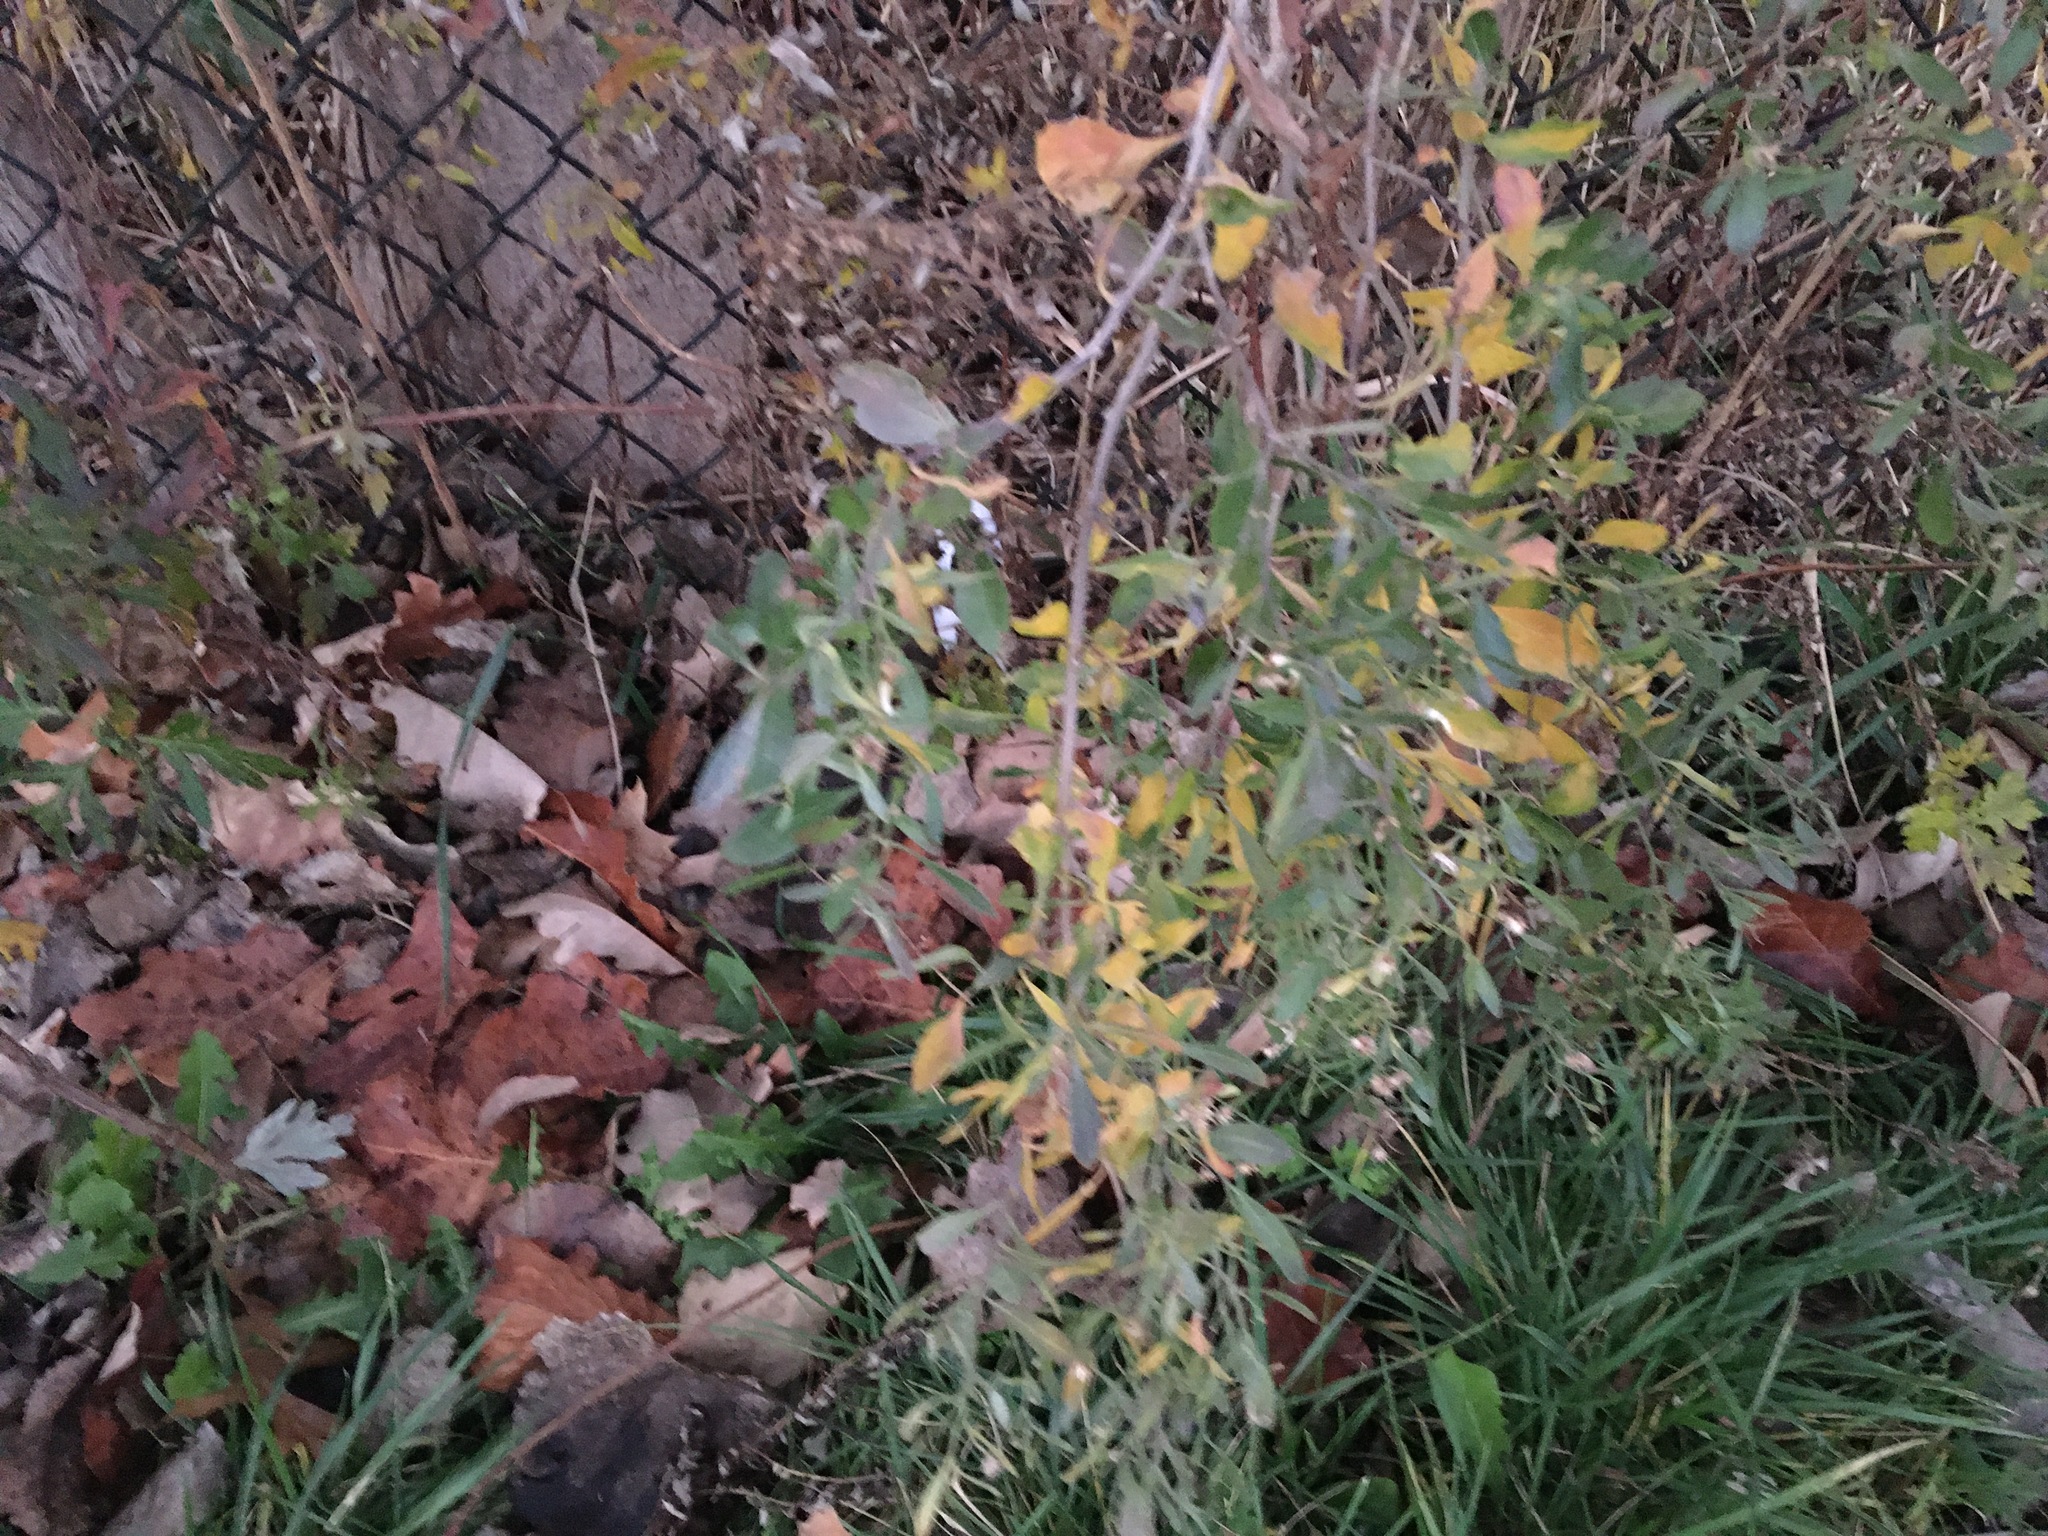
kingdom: Plantae
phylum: Tracheophyta
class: Magnoliopsida
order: Asterales
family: Asteraceae
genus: Baccharis
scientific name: Baccharis halimifolia
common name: Eastern baccharis
